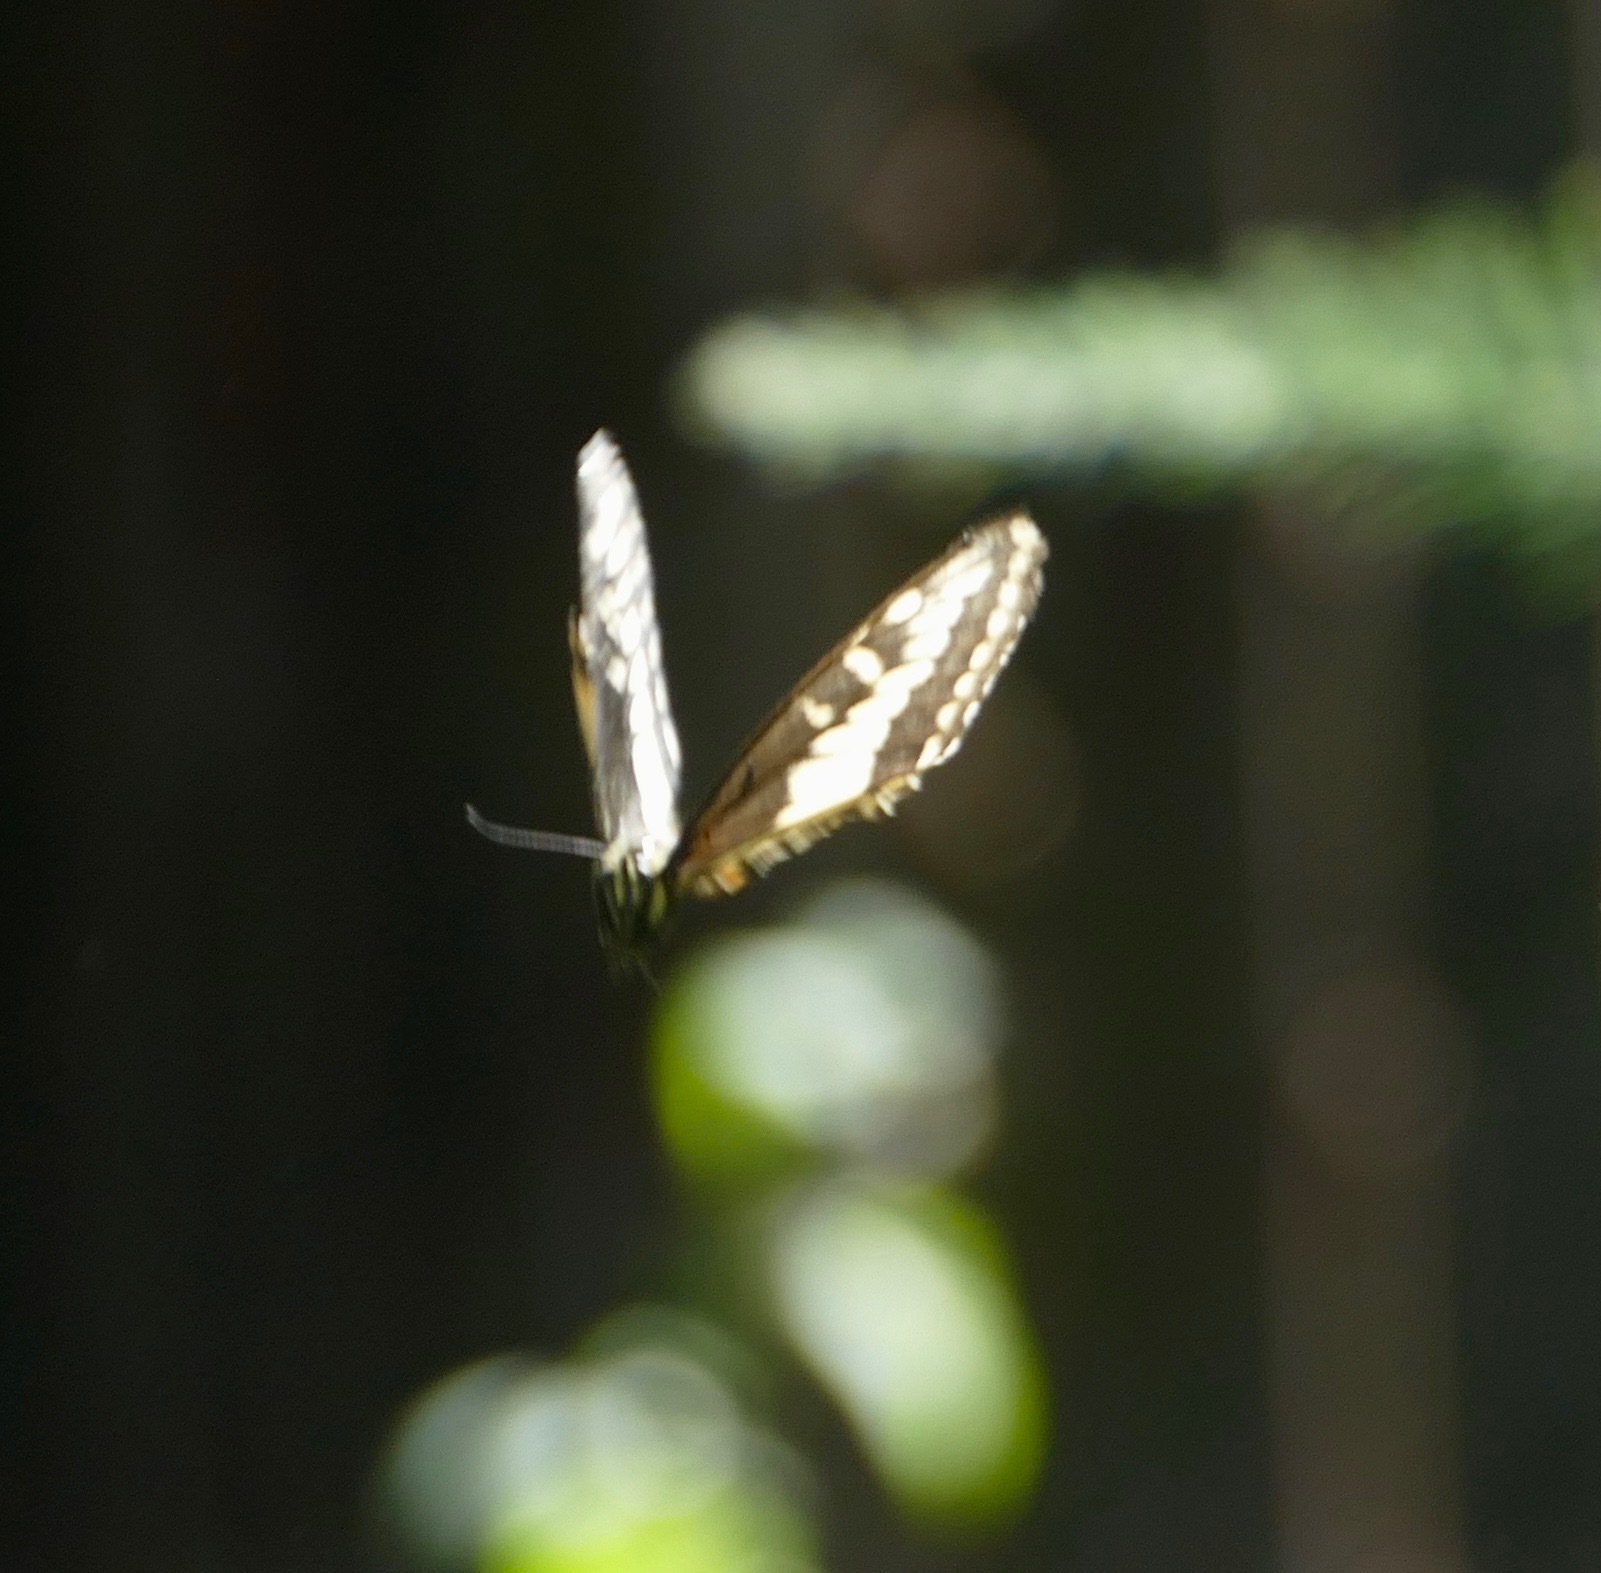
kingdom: Animalia
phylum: Arthropoda
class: Insecta
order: Lepidoptera
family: Papilionidae
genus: Papilio
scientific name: Papilio zelicaon
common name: Anise swallowtail
